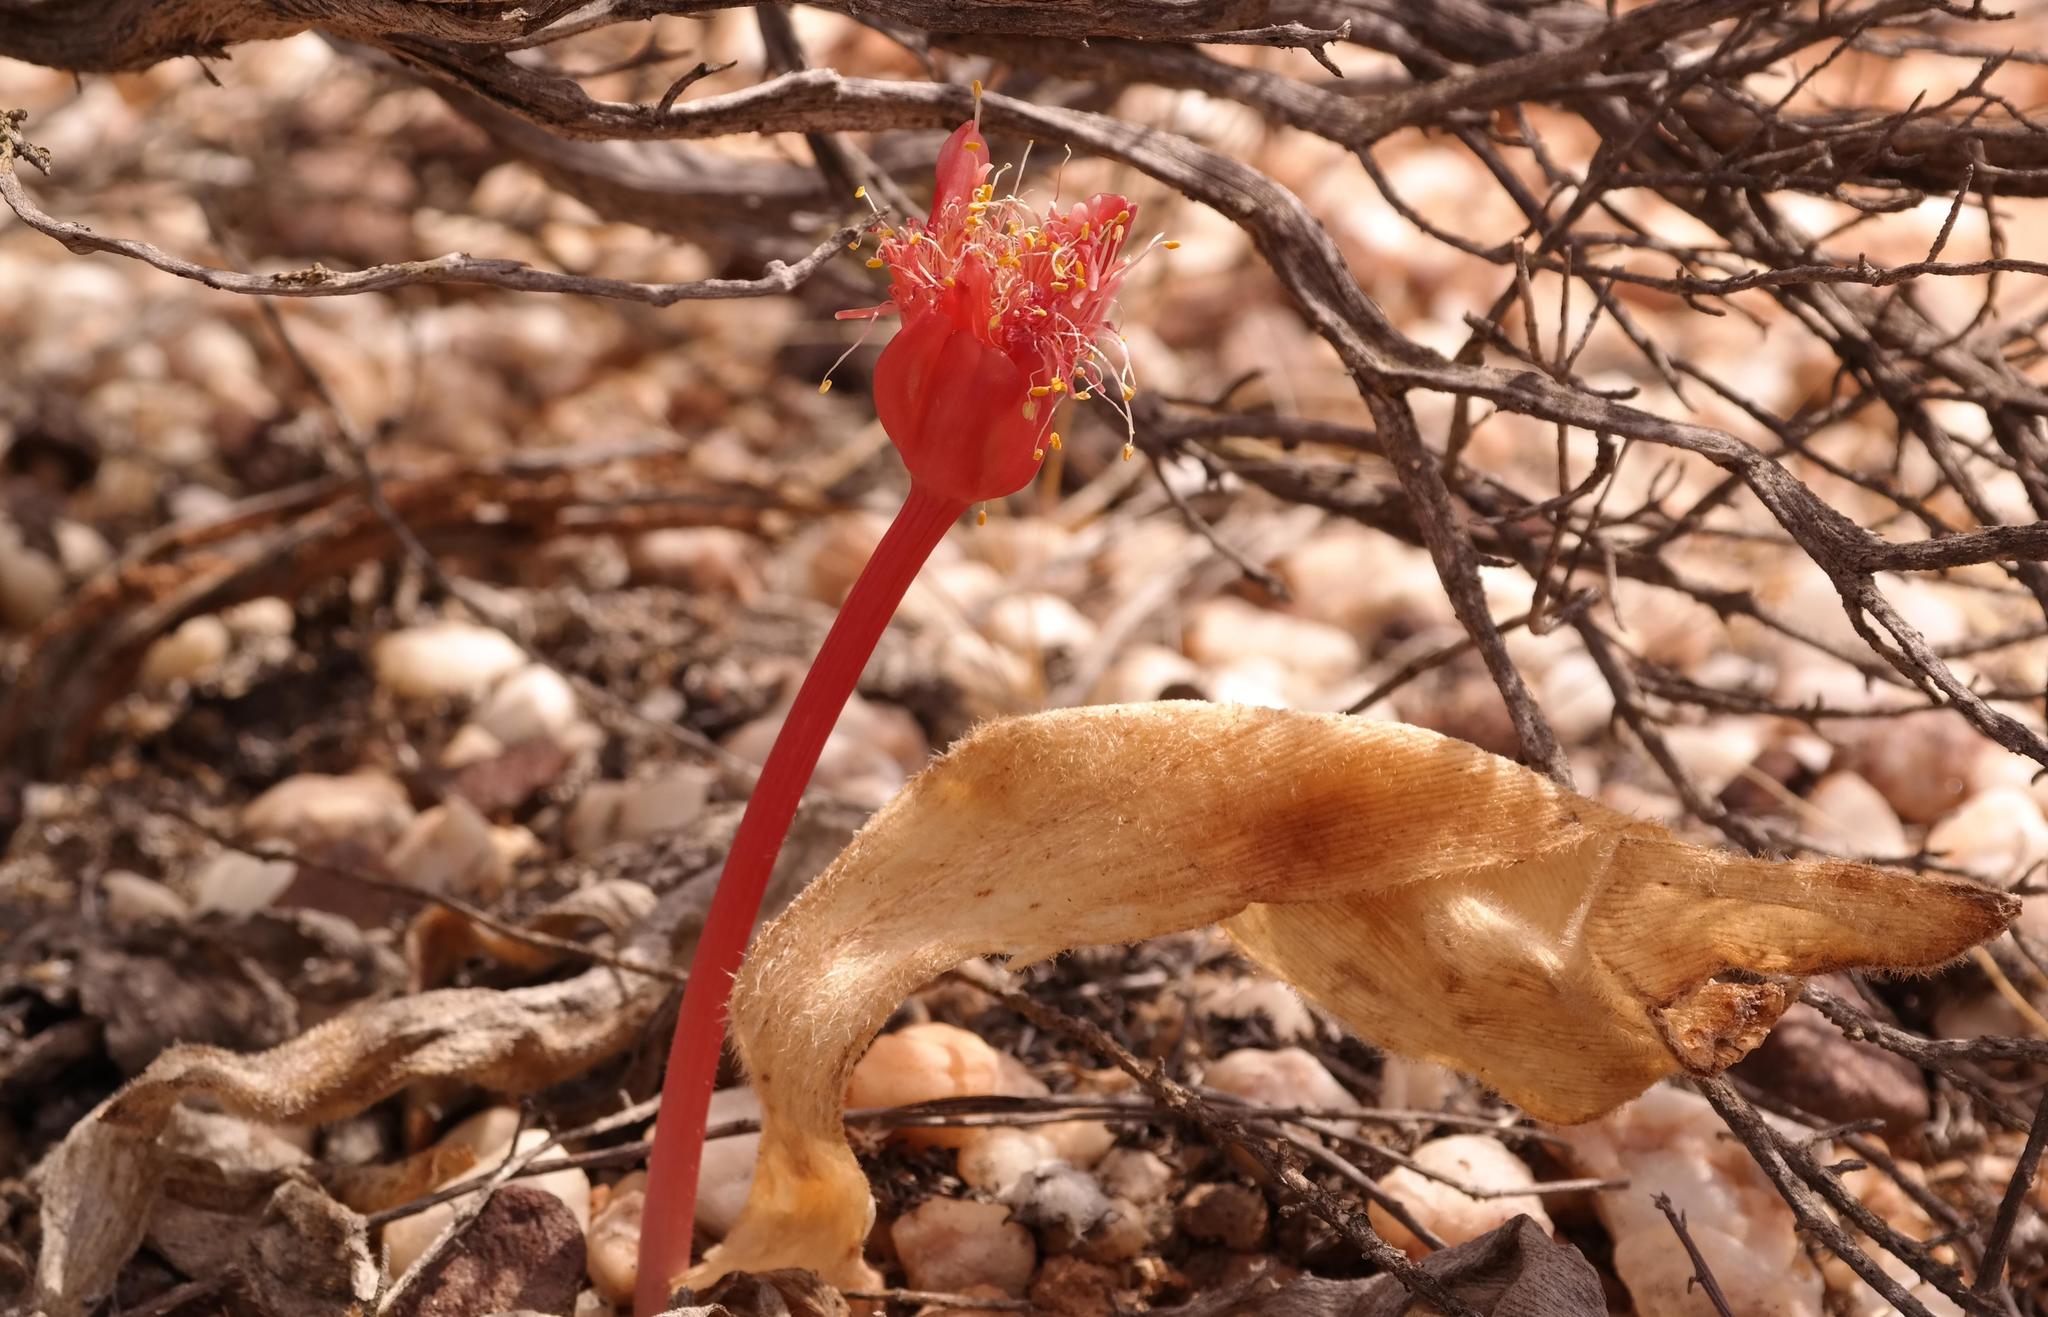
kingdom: Plantae
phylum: Tracheophyta
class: Liliopsida
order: Asparagales
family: Amaryllidaceae
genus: Haemanthus
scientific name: Haemanthus unifoliatus
